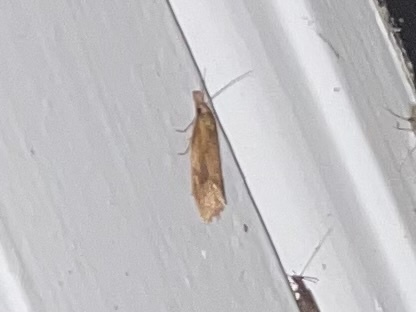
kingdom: Animalia
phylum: Arthropoda
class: Insecta
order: Lepidoptera
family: Tortricidae
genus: Aethes
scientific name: Aethes biscana
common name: Reddish aethes
